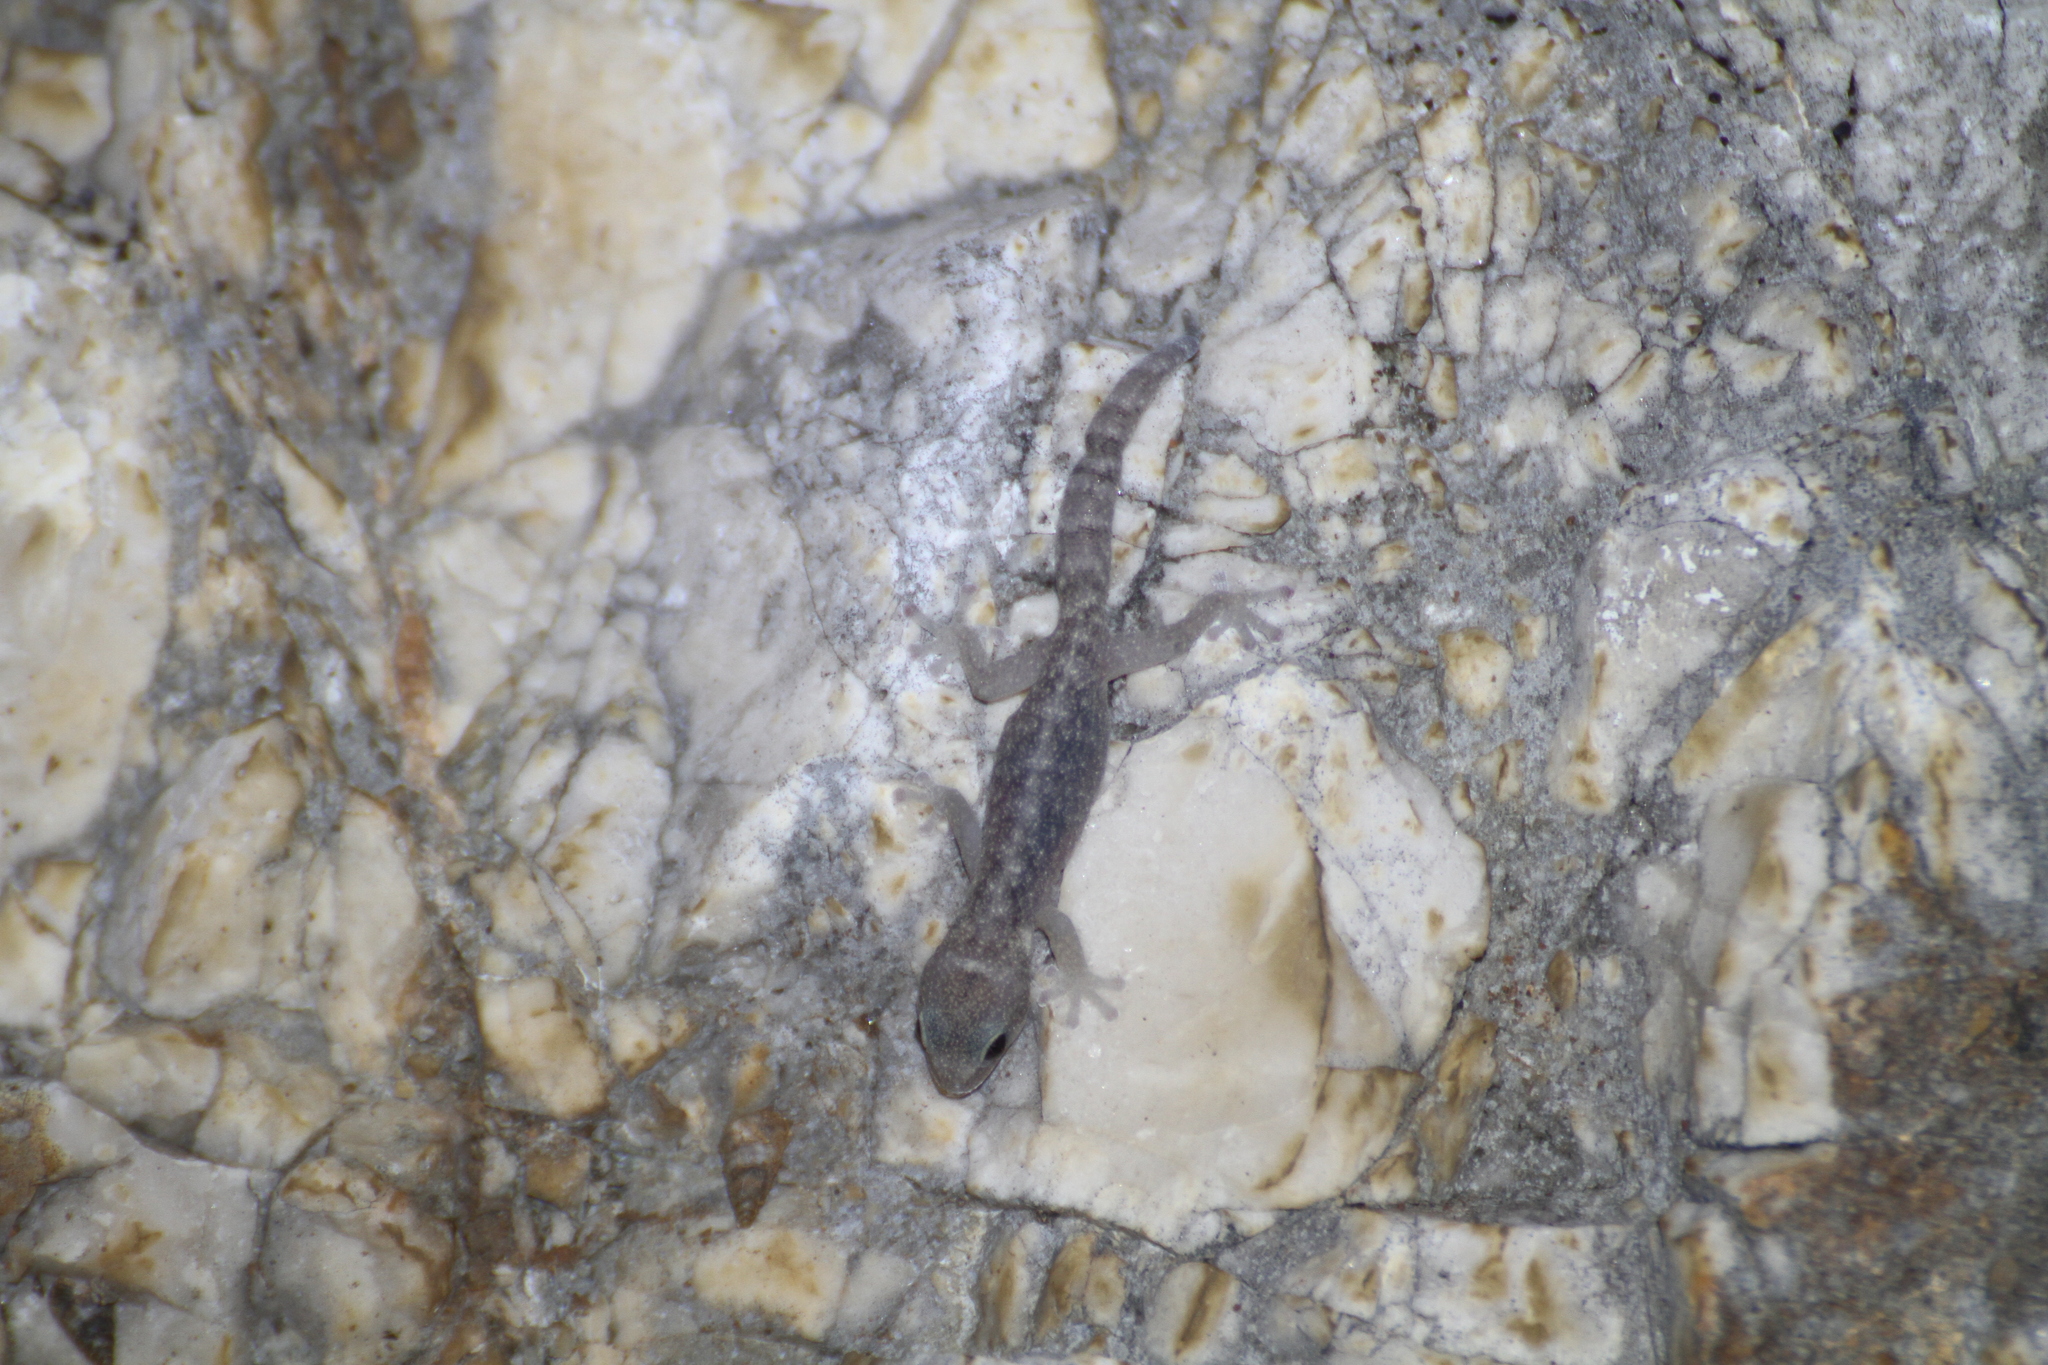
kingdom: Animalia
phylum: Chordata
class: Squamata
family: Sphaerodactylidae
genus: Euleptes
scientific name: Euleptes europaea
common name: English common name not available
